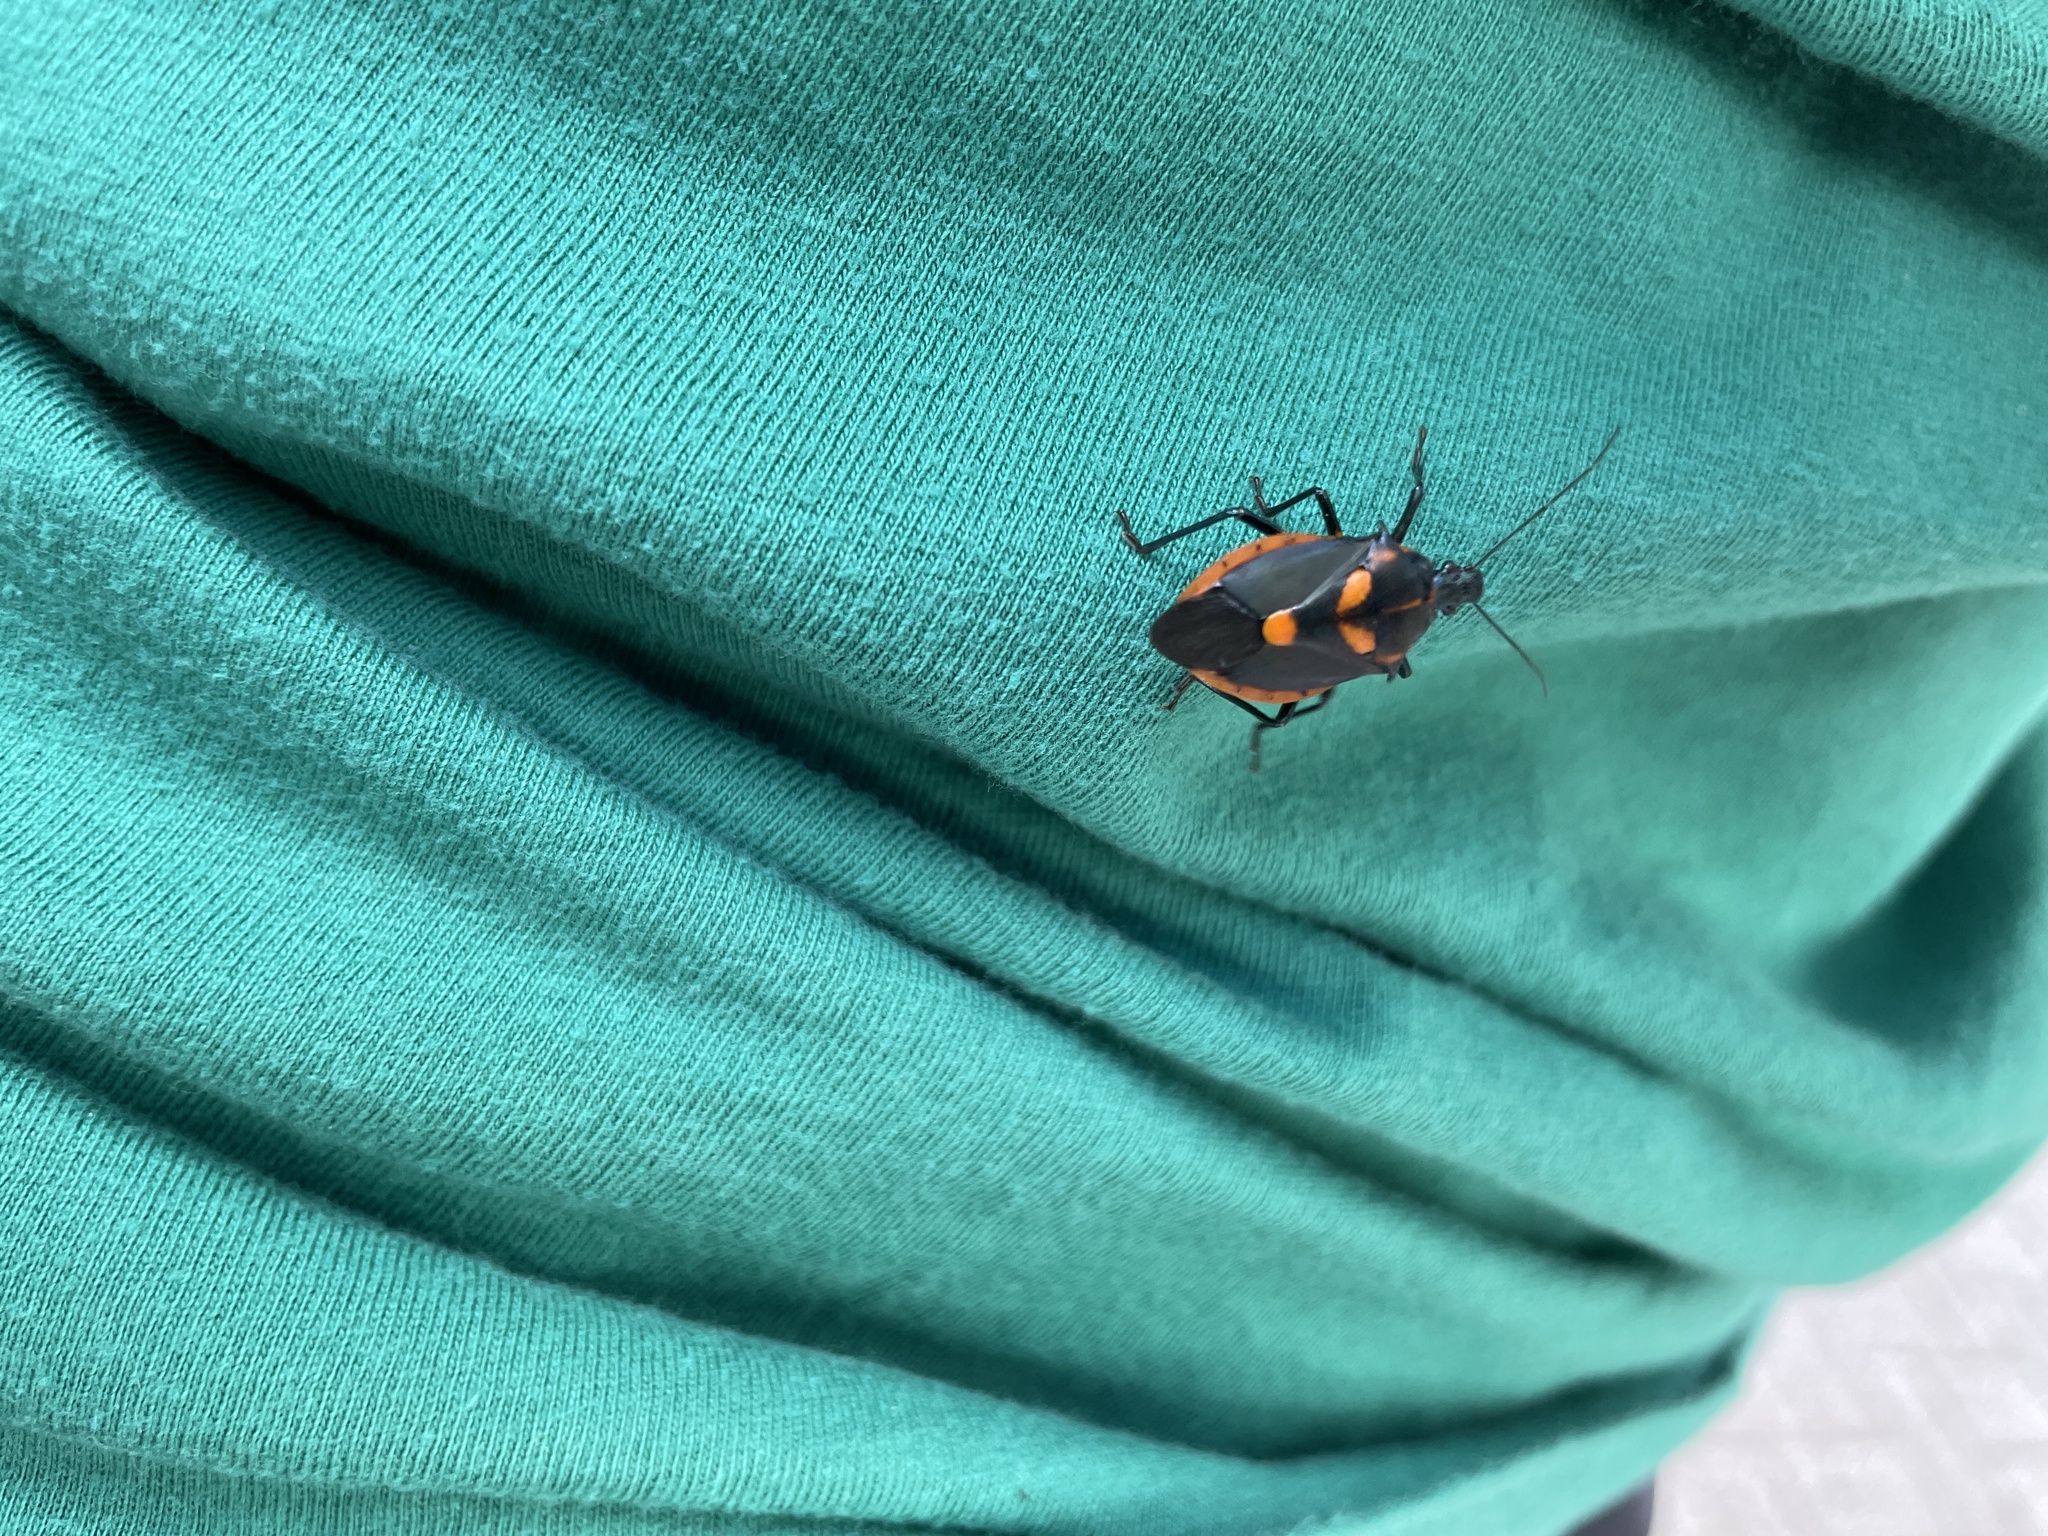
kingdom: Animalia
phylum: Arthropoda
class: Insecta
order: Hemiptera
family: Pentatomidae
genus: Euthyrhynchus
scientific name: Euthyrhynchus floridanus
